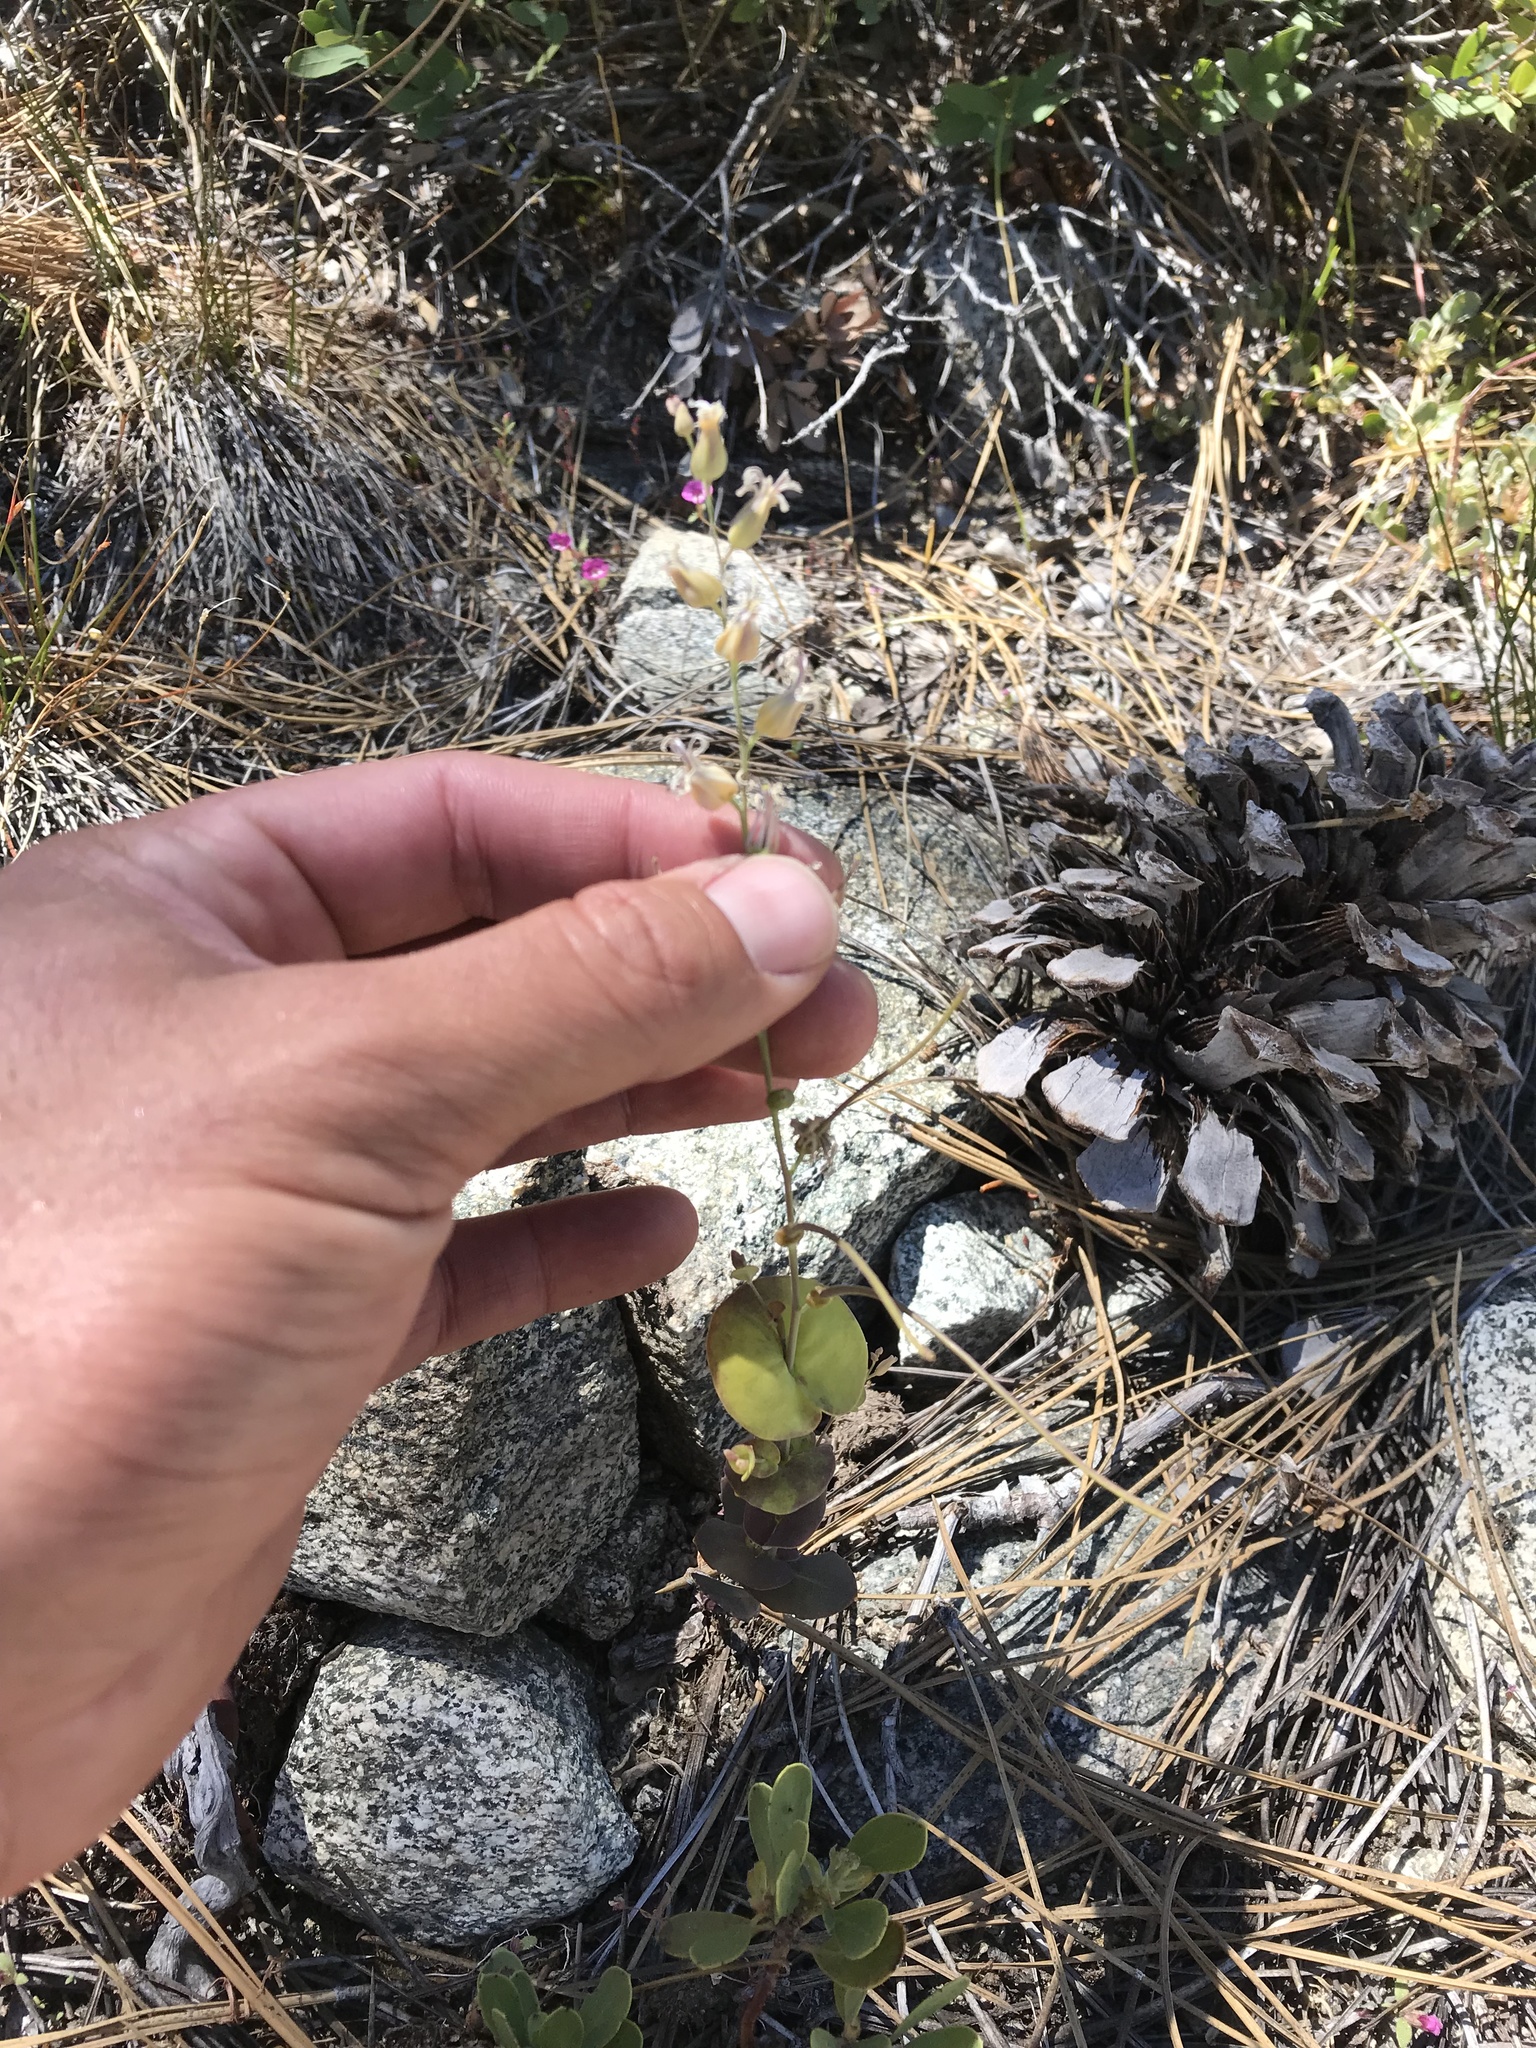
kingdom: Plantae
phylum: Tracheophyta
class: Magnoliopsida
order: Brassicales
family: Brassicaceae
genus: Streptanthus
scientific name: Streptanthus tortuosus
